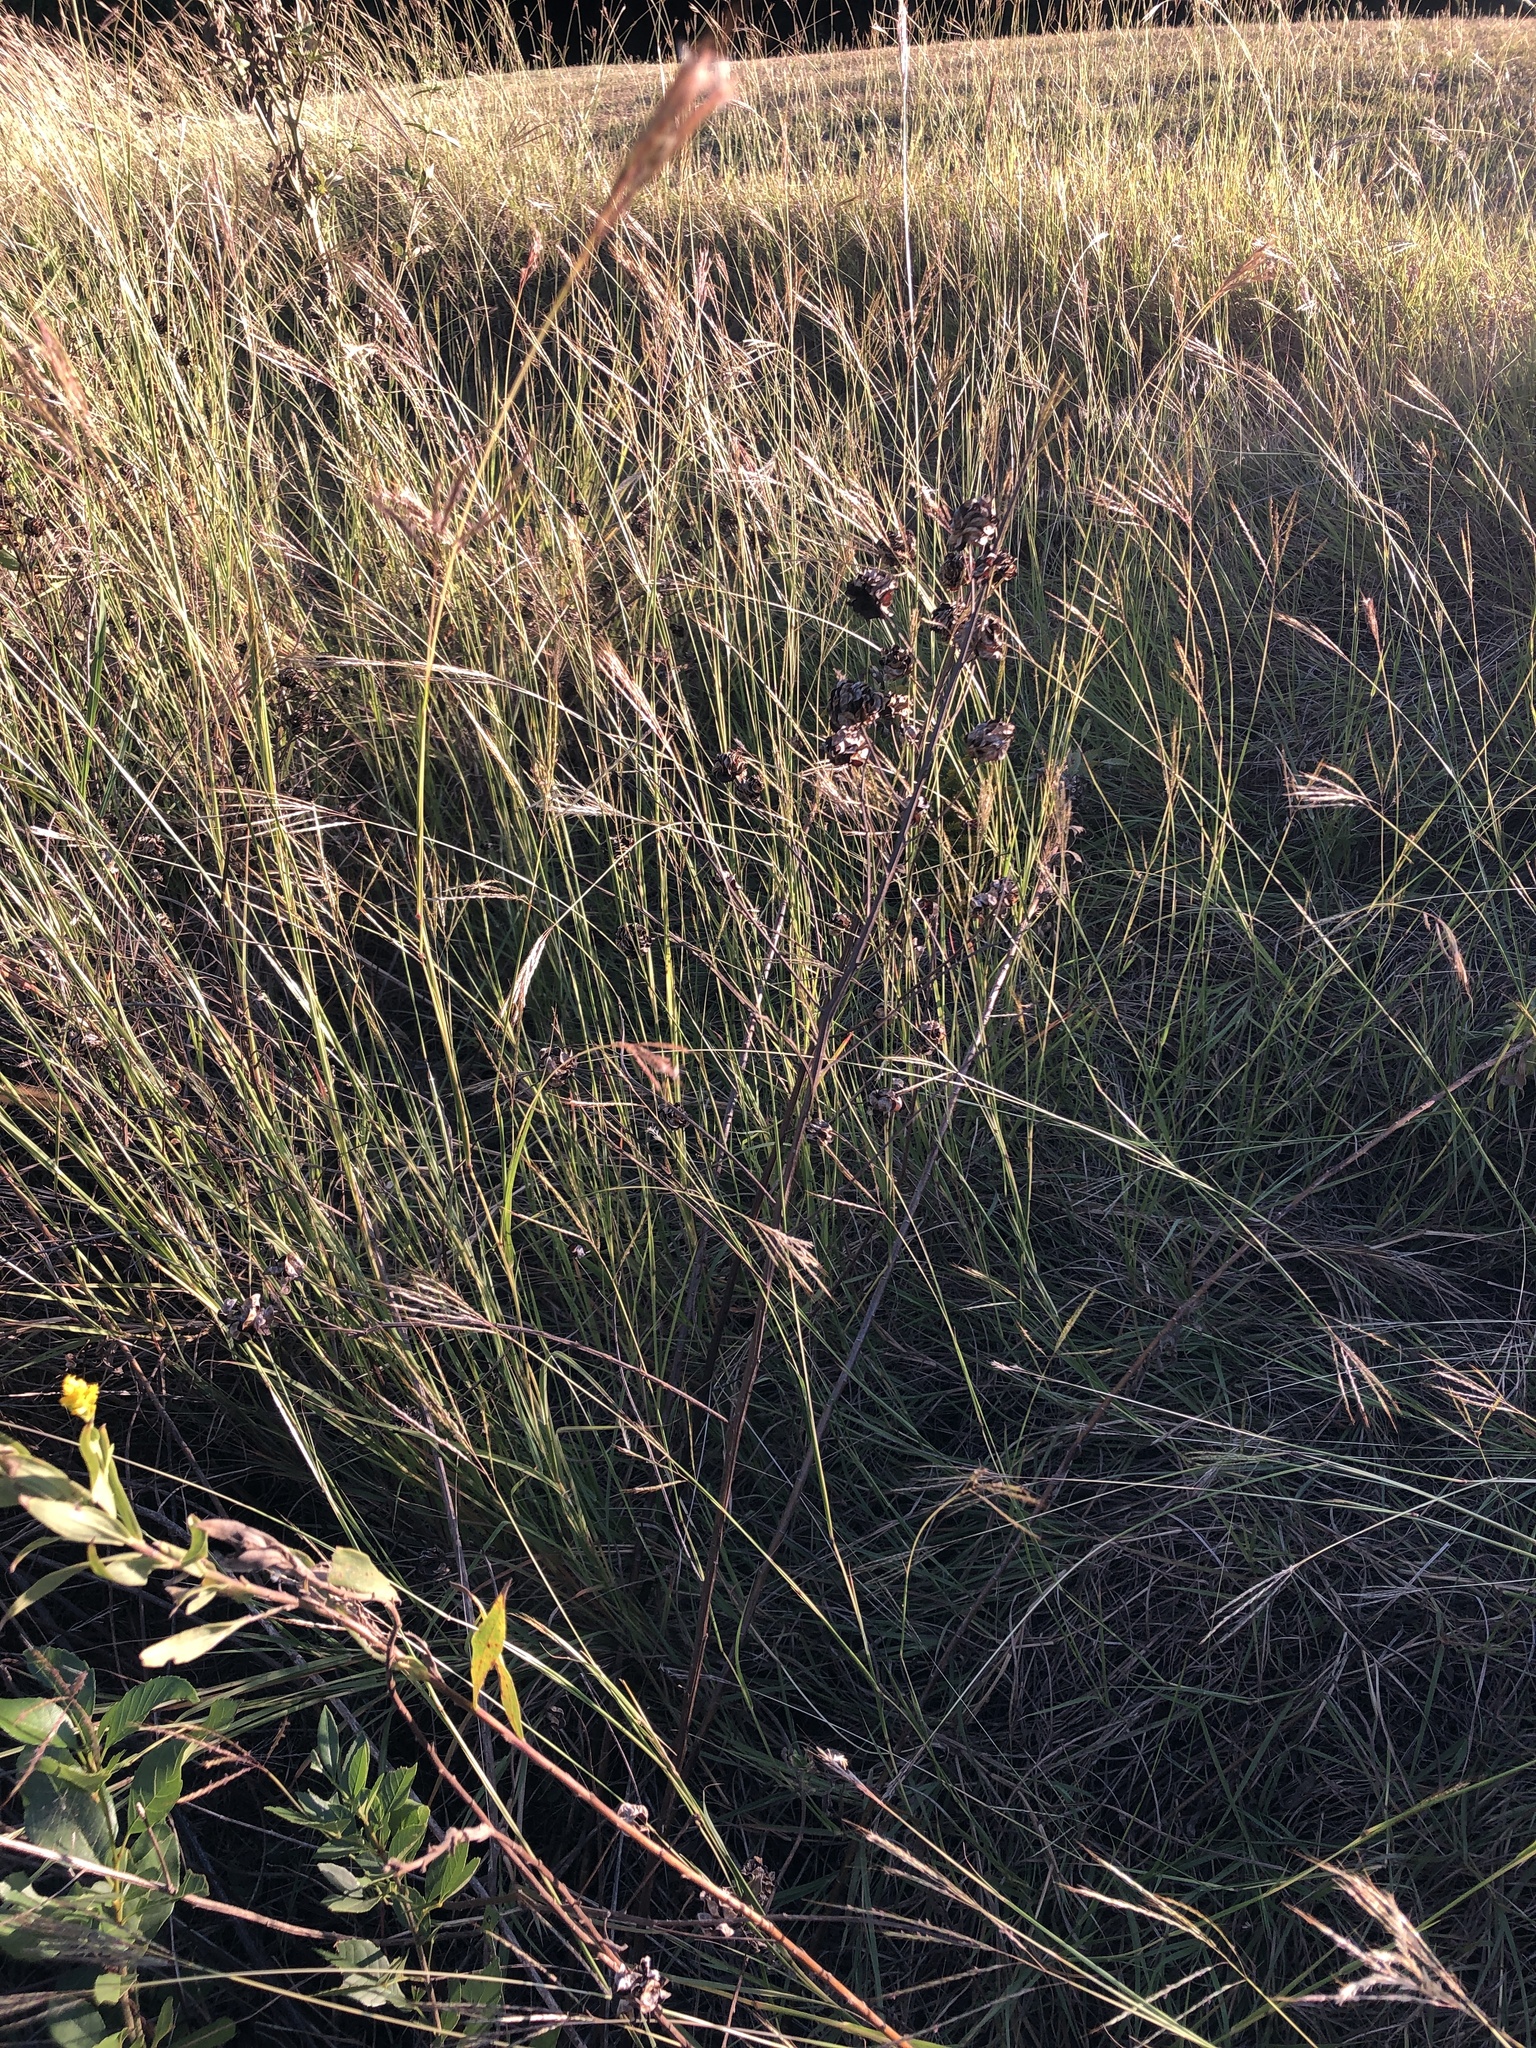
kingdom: Plantae
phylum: Tracheophyta
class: Magnoliopsida
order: Fabales
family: Fabaceae
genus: Desmanthus
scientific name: Desmanthus illinoensis
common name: Illinois bundle-flower
